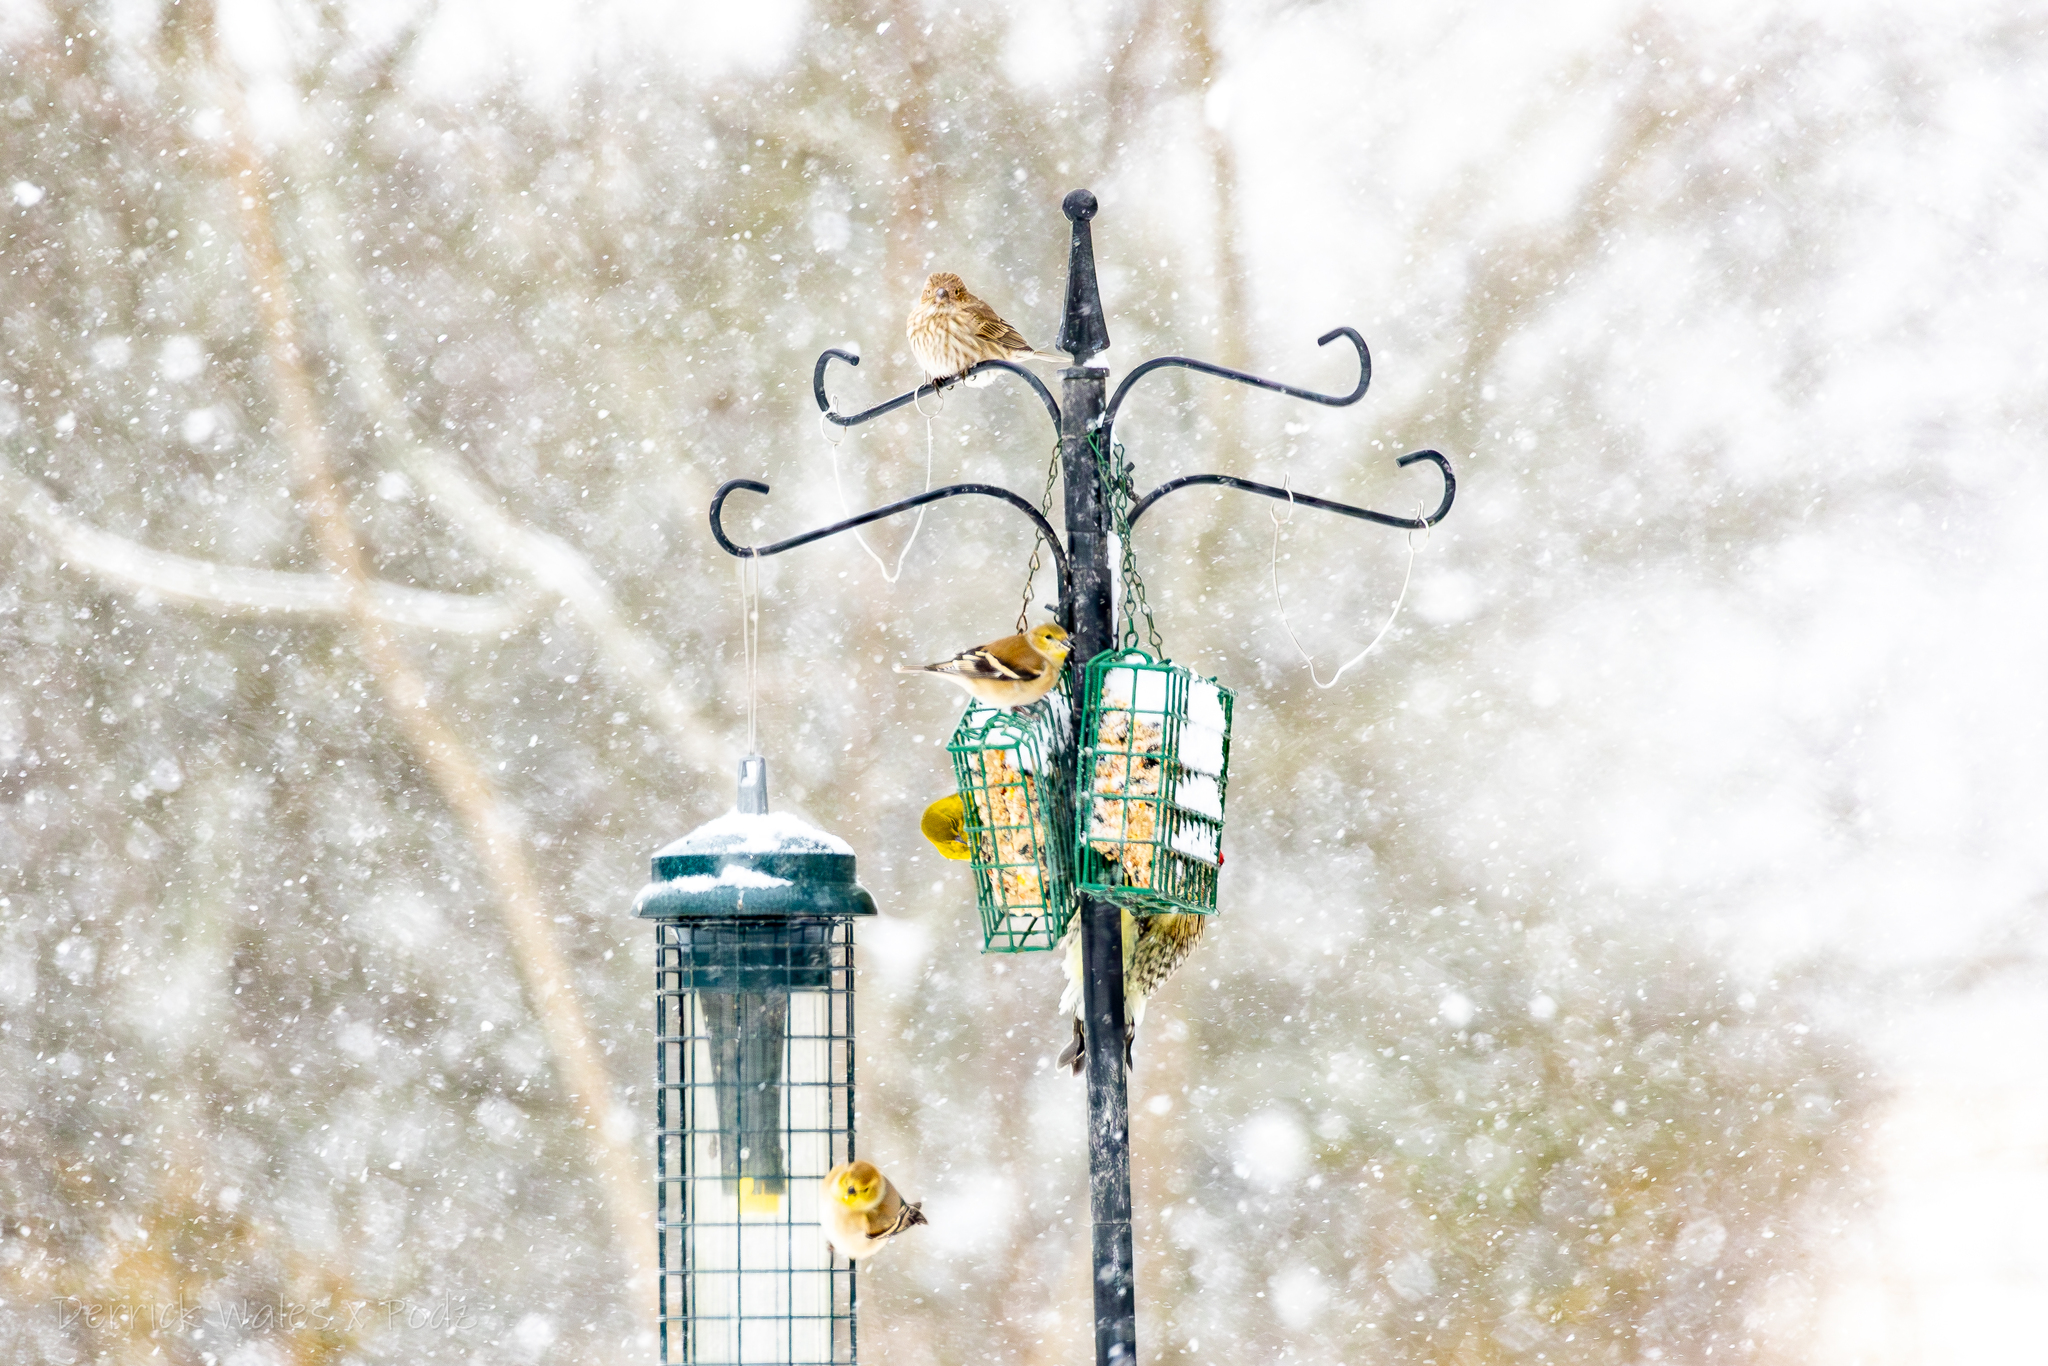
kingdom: Animalia
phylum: Chordata
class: Aves
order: Passeriformes
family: Fringillidae
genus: Spinus
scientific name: Spinus tristis
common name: American goldfinch
